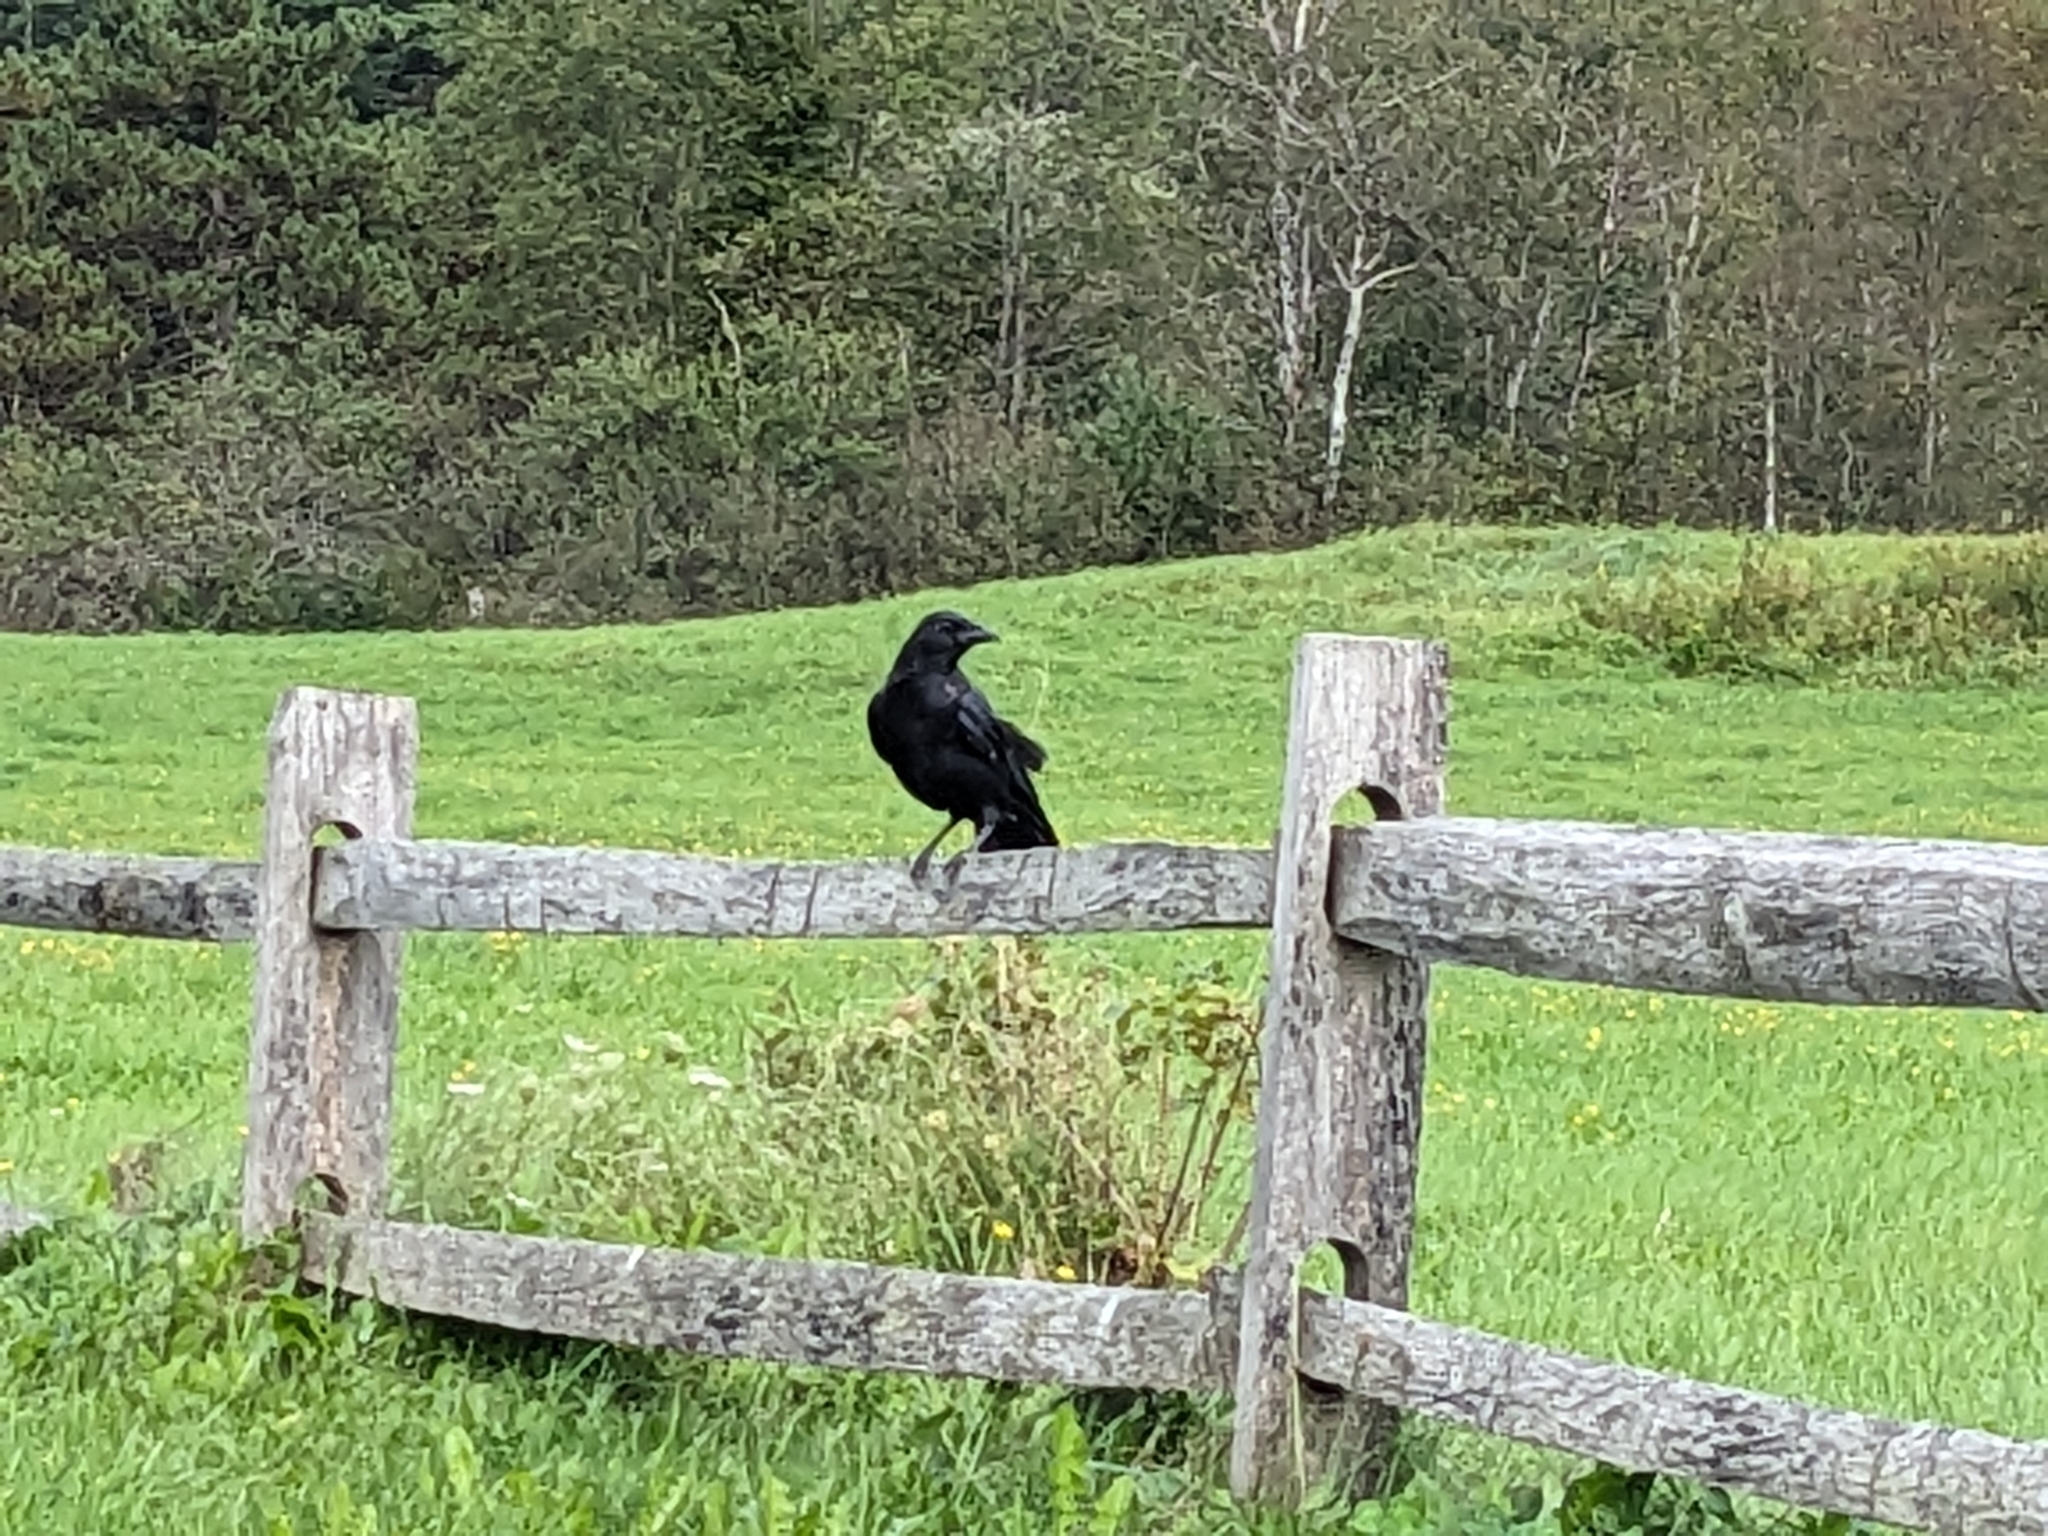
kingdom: Animalia
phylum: Chordata
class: Aves
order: Passeriformes
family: Corvidae
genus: Corvus
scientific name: Corvus brachyrhynchos
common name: American crow
